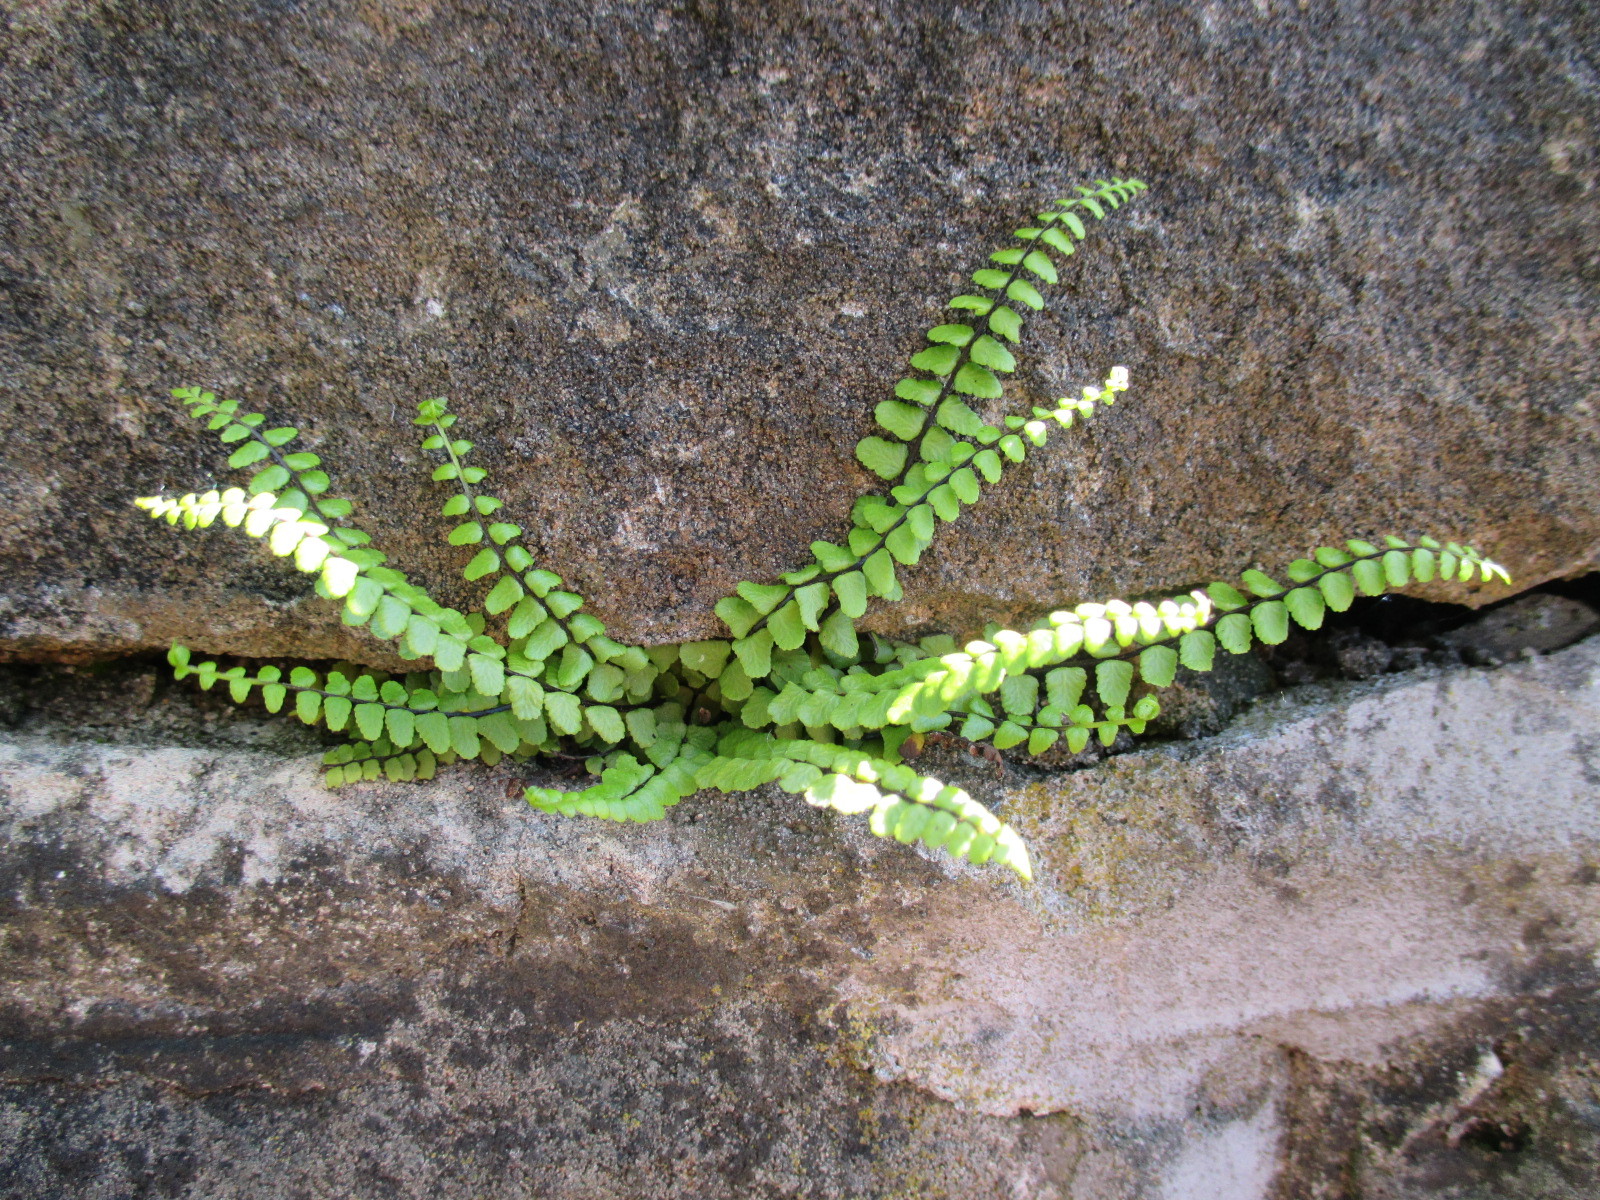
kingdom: Plantae
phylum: Tracheophyta
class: Polypodiopsida
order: Polypodiales
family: Aspleniaceae
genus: Asplenium
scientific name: Asplenium trichomanes
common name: Maidenhair spleenwort
